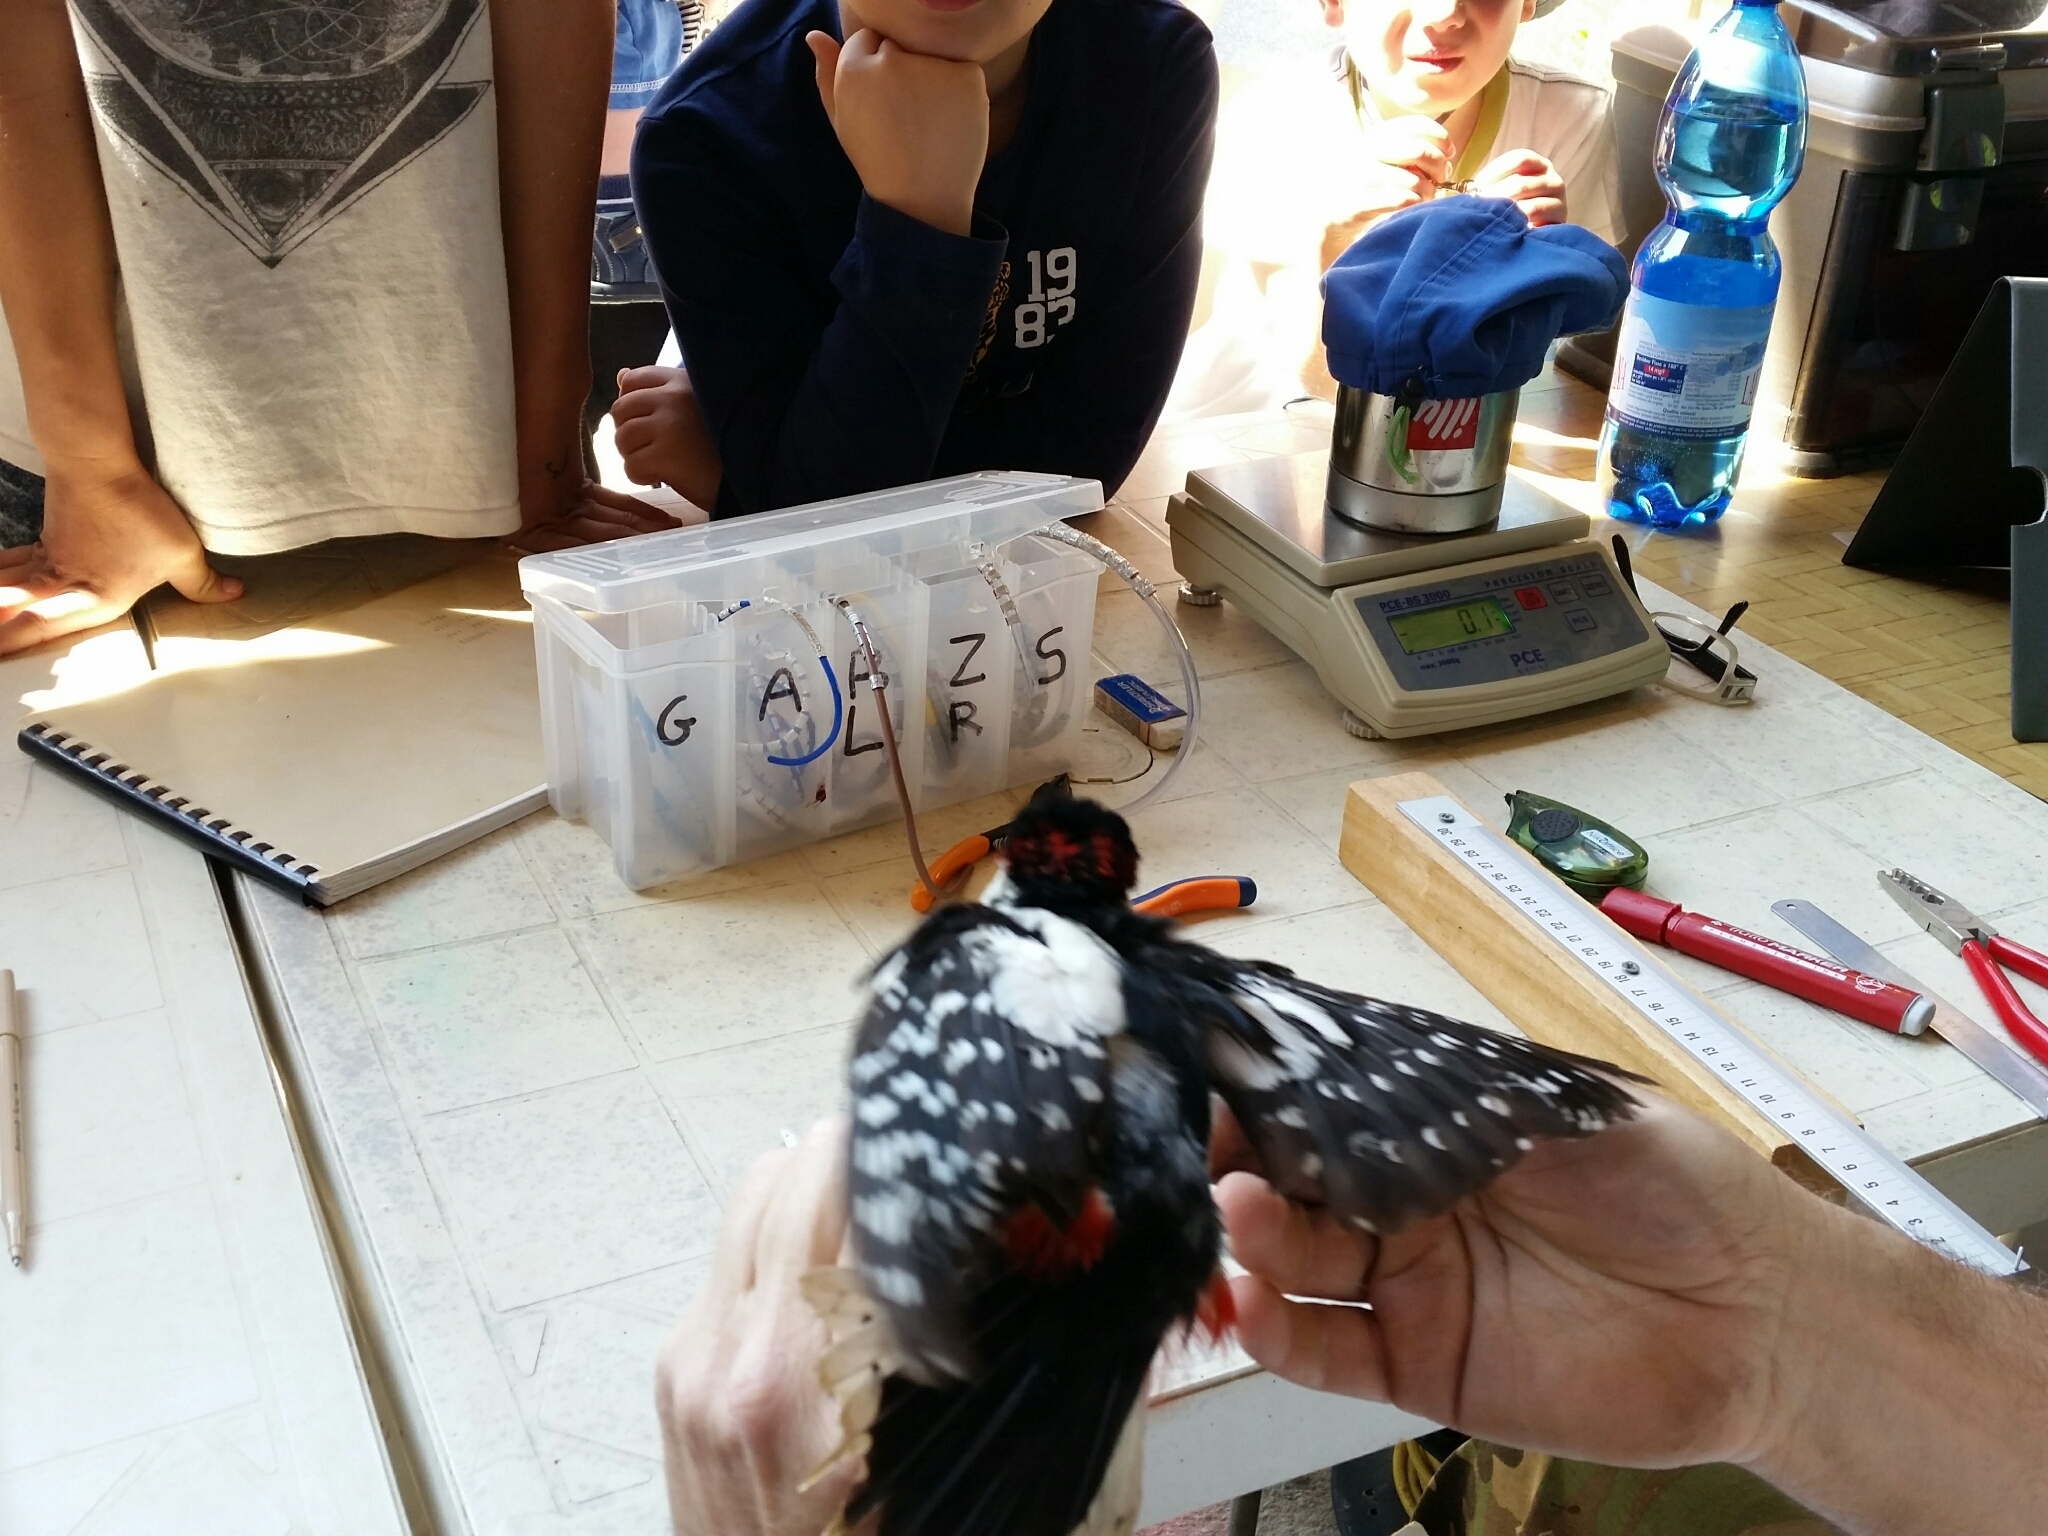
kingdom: Animalia
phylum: Chordata
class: Aves
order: Piciformes
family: Picidae
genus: Dendrocopos
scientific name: Dendrocopos major
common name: Great spotted woodpecker
